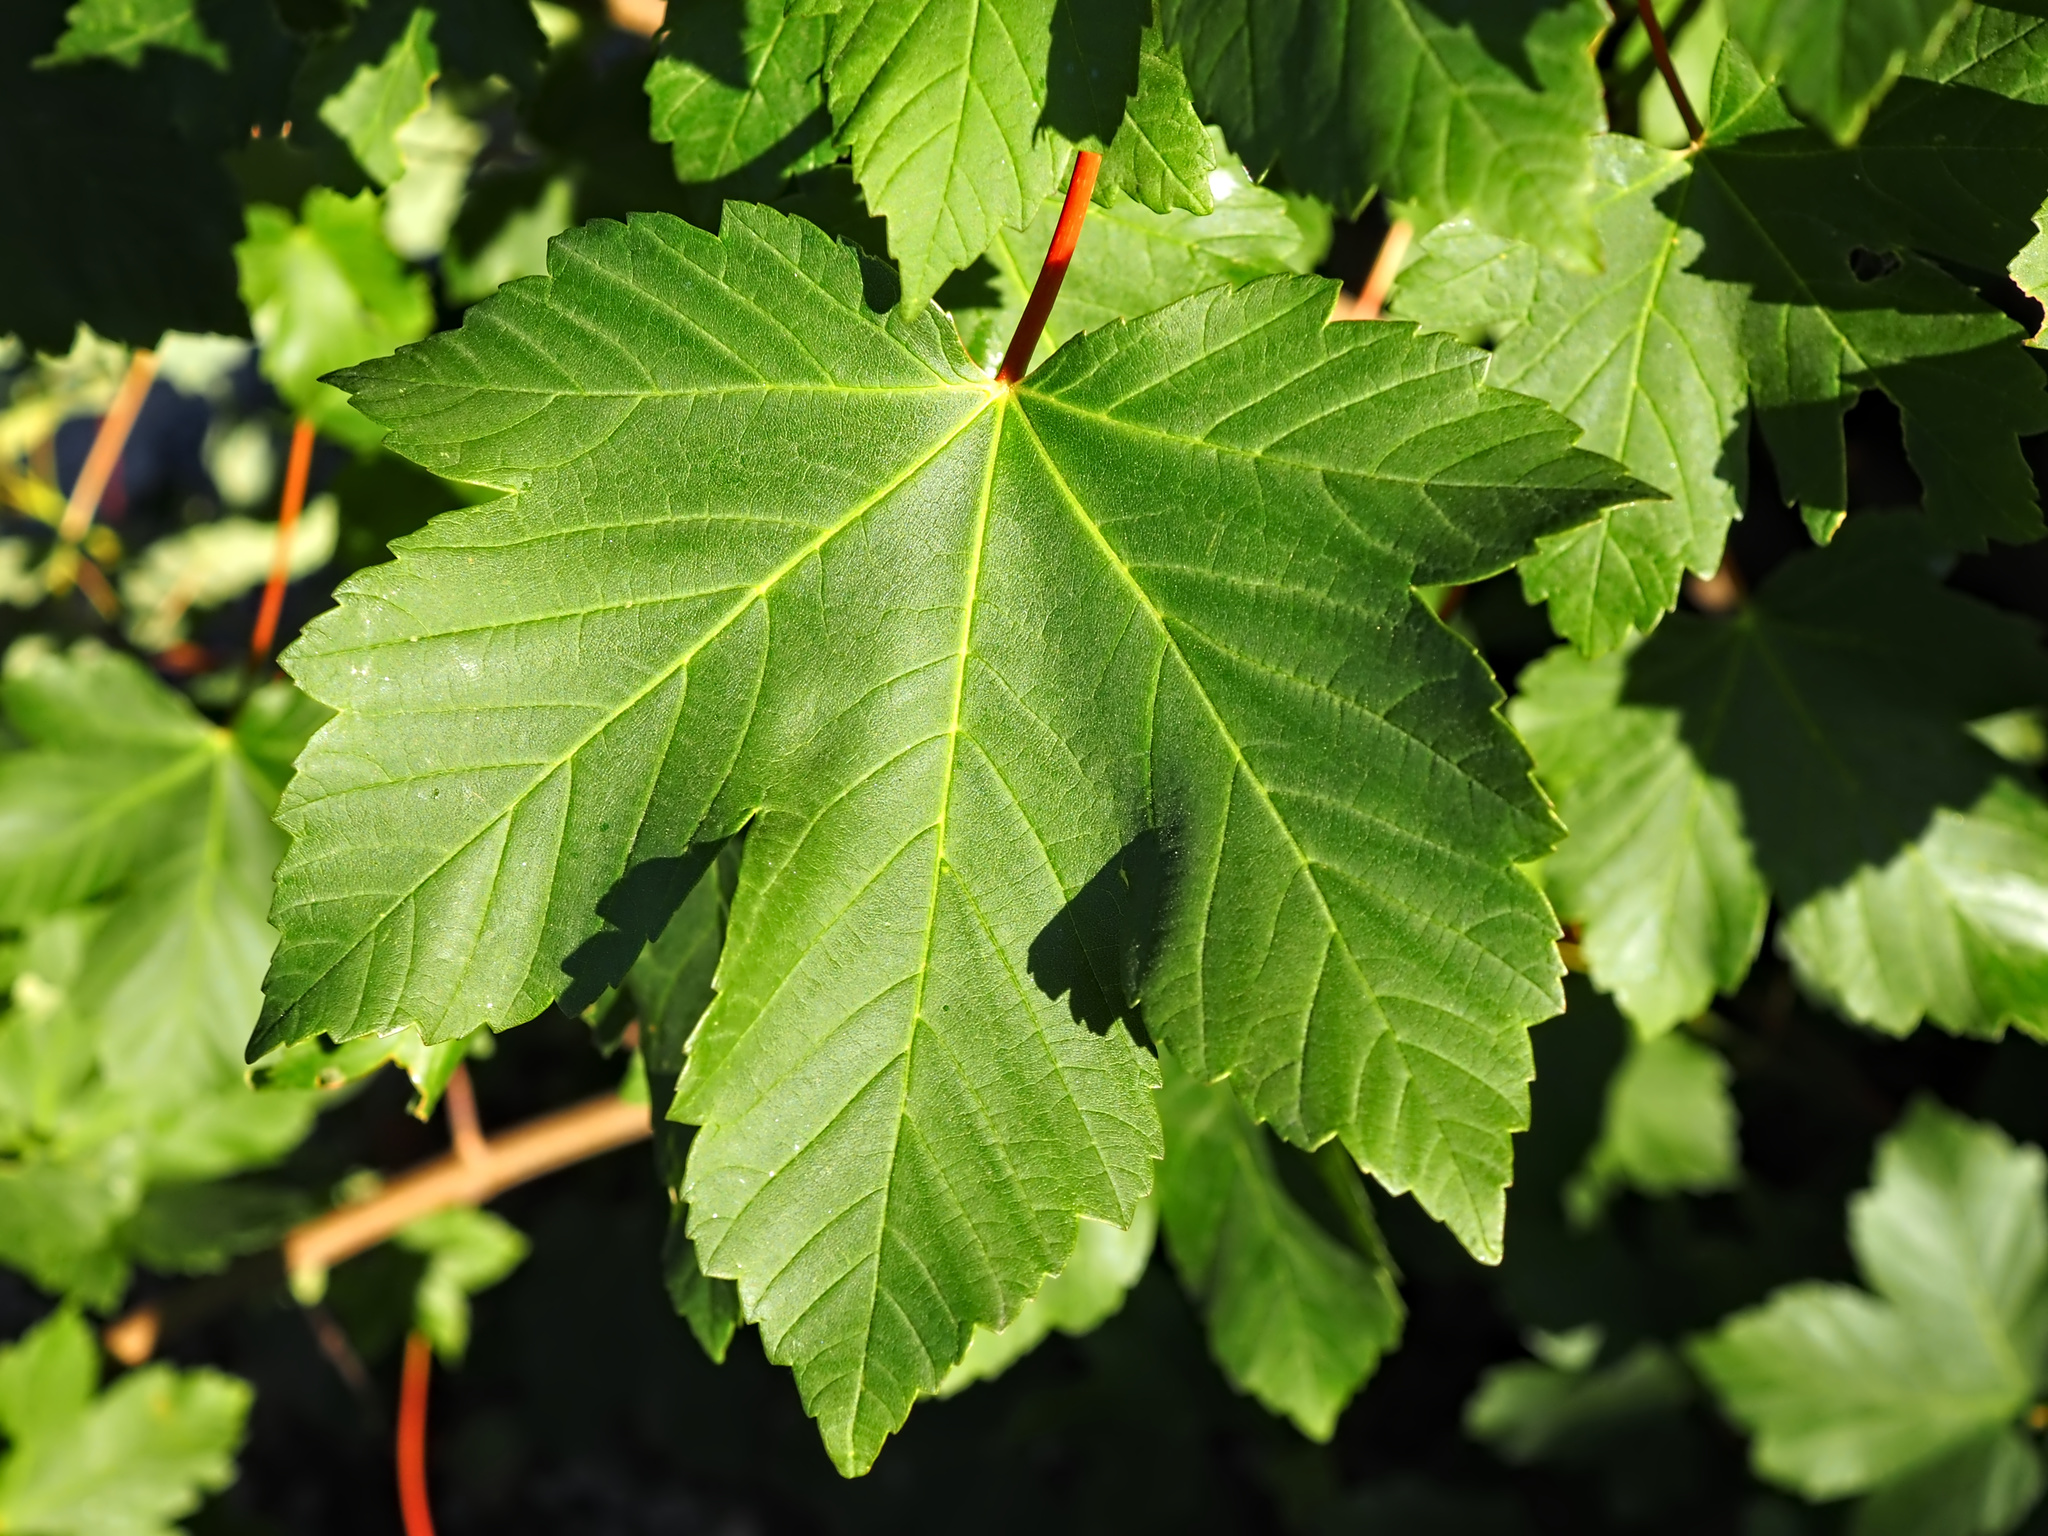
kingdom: Plantae
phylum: Tracheophyta
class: Magnoliopsida
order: Sapindales
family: Sapindaceae
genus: Acer
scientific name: Acer pseudoplatanus
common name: Sycamore
